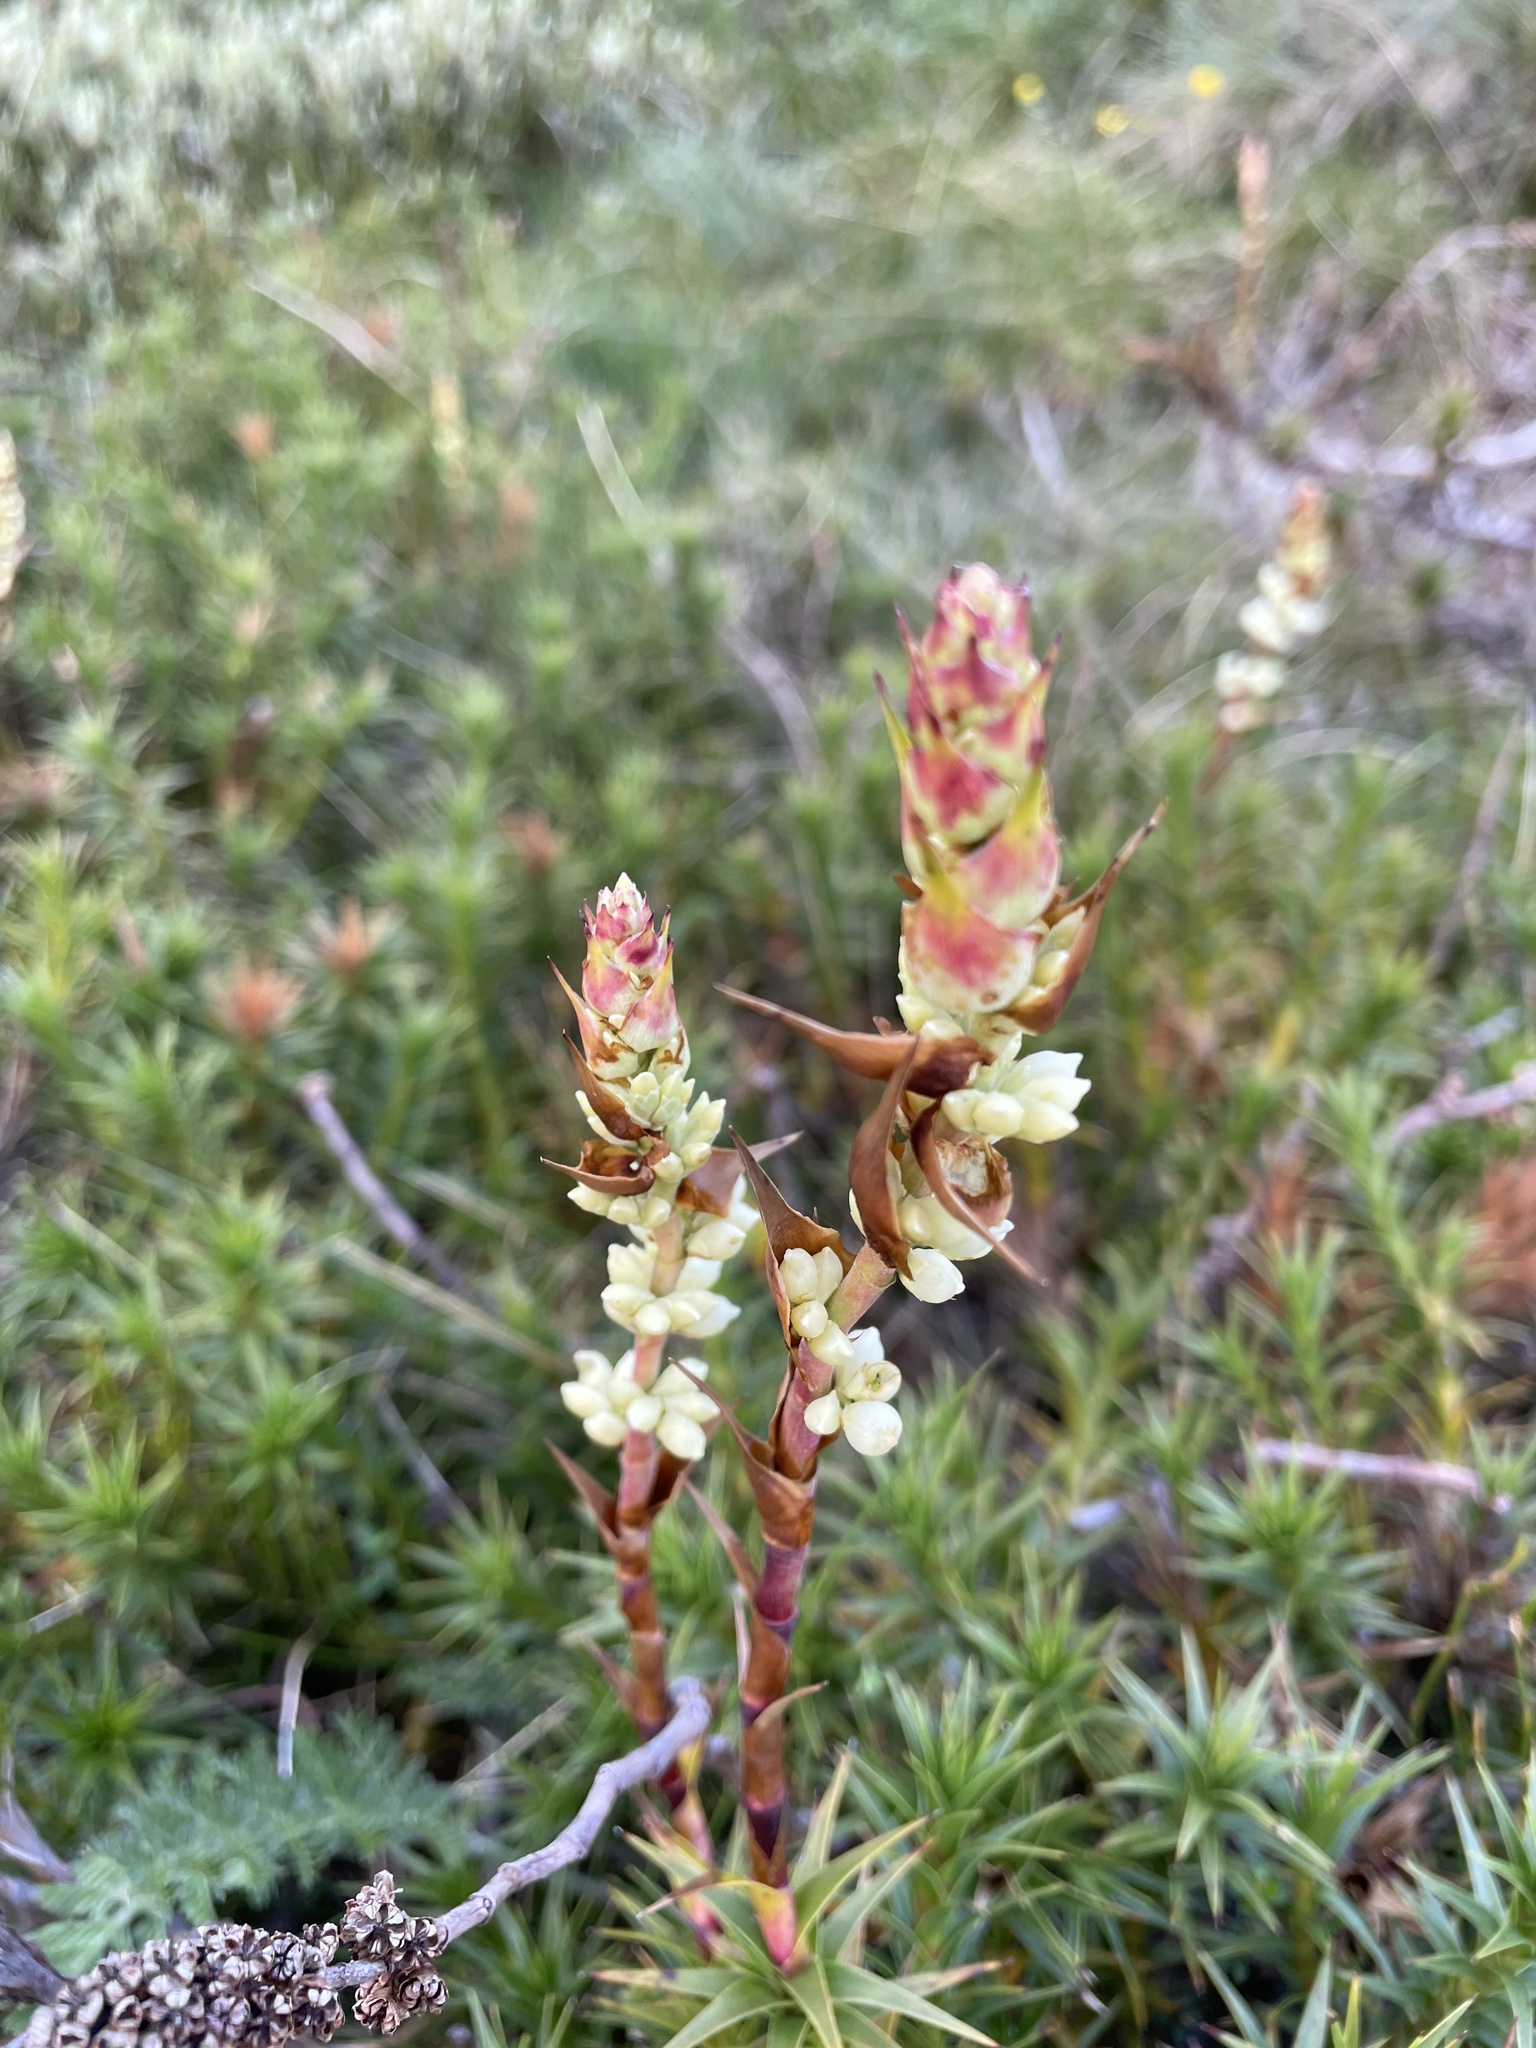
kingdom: Plantae
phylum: Tracheophyta
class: Magnoliopsida
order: Ericales
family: Ericaceae
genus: Dracophyllum
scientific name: Dracophyllum continentis
